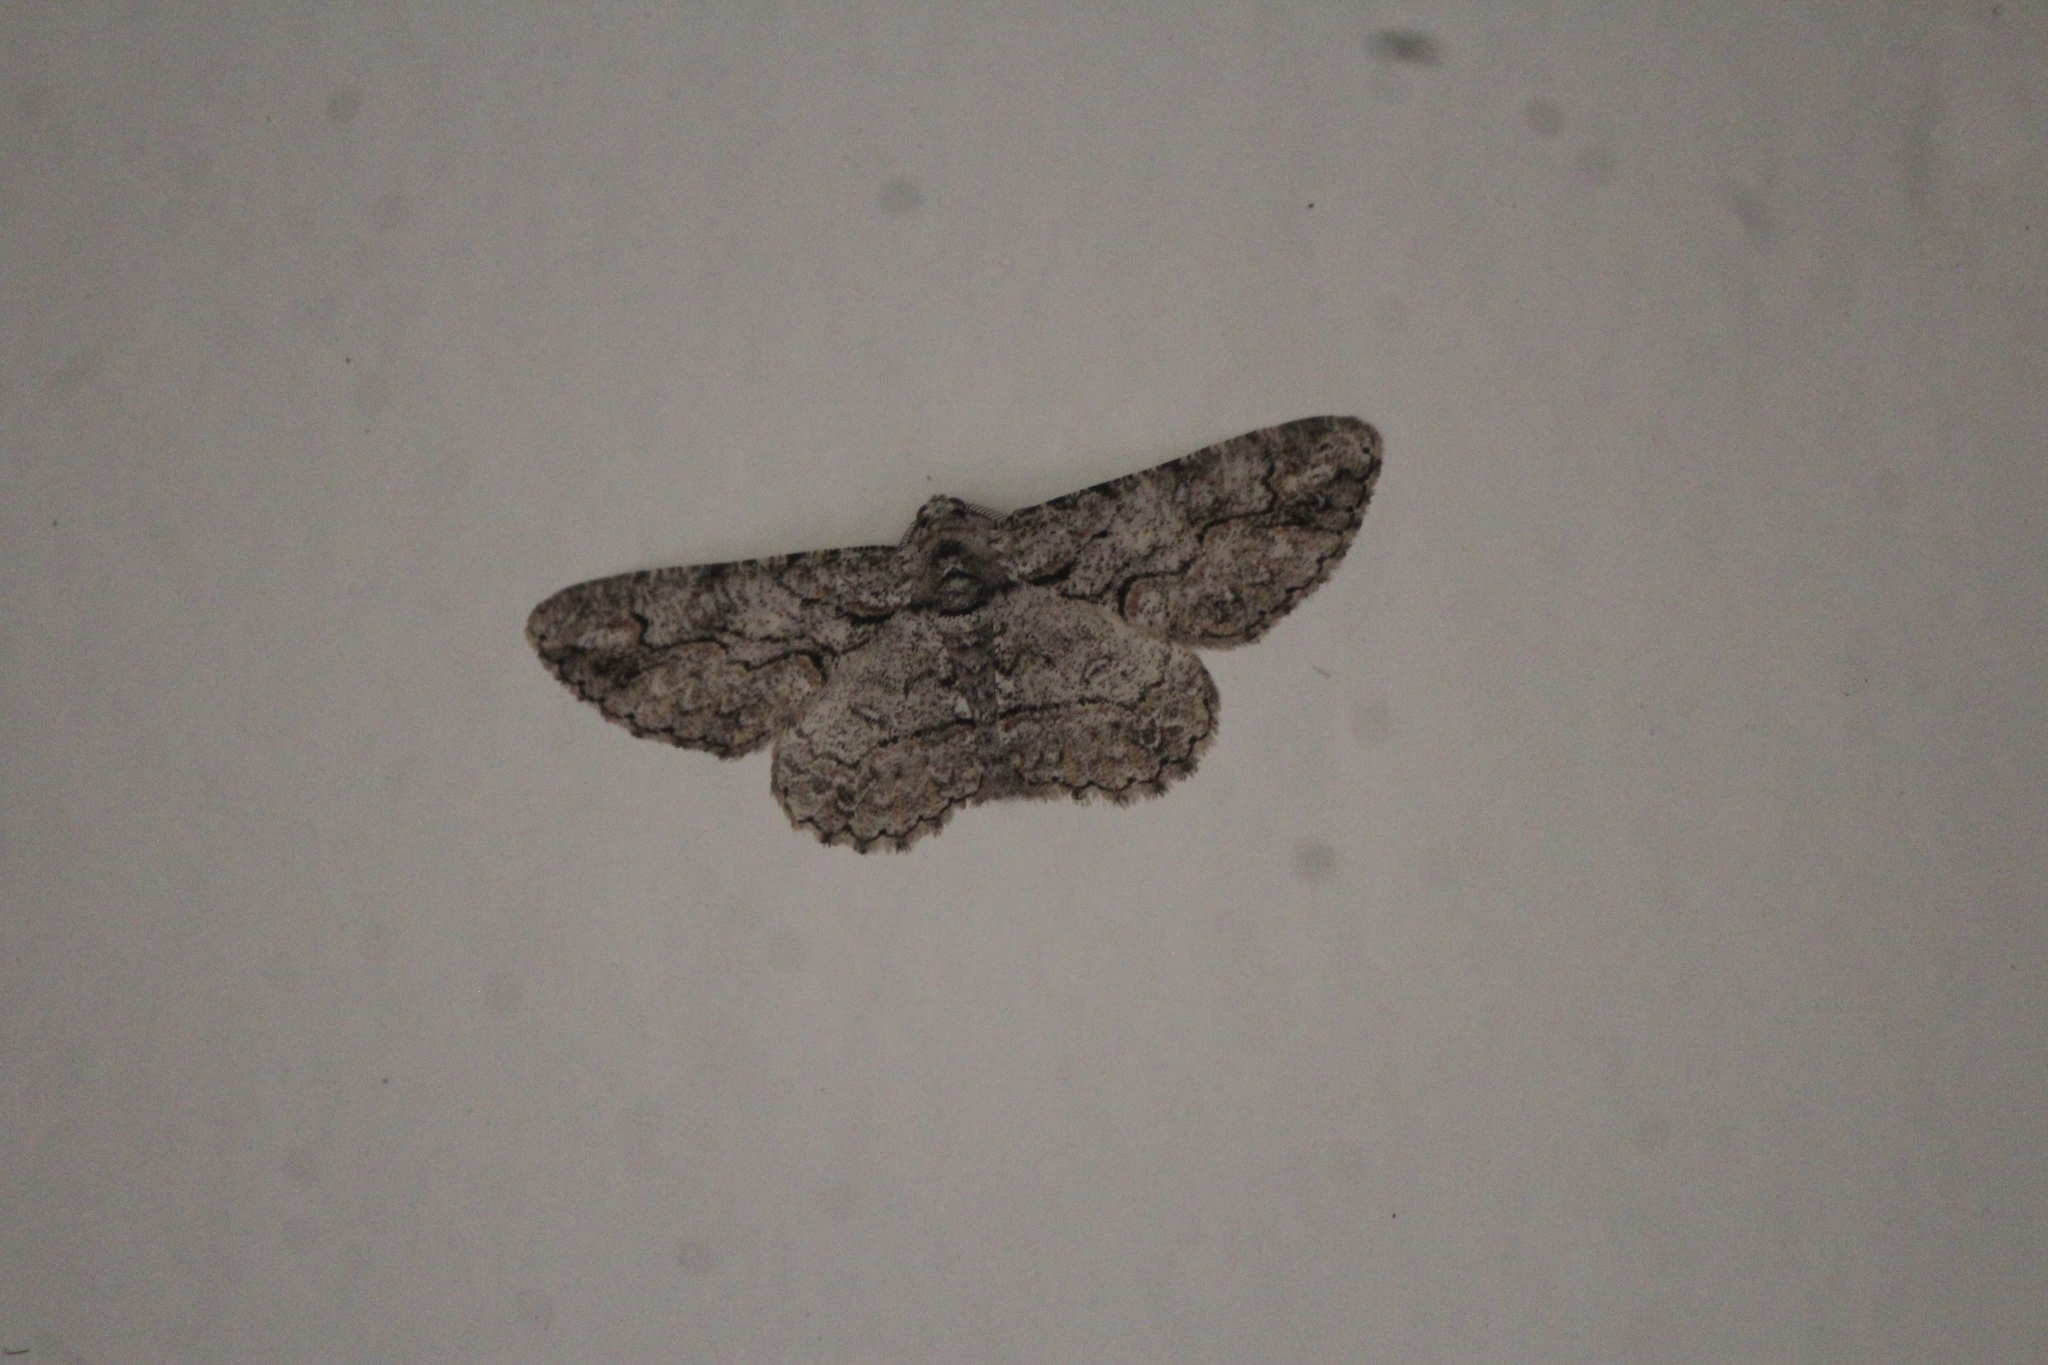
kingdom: Animalia
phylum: Arthropoda
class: Insecta
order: Lepidoptera
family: Geometridae
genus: Iridopsis
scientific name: Iridopsis defectaria
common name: Brown-shaded gray
